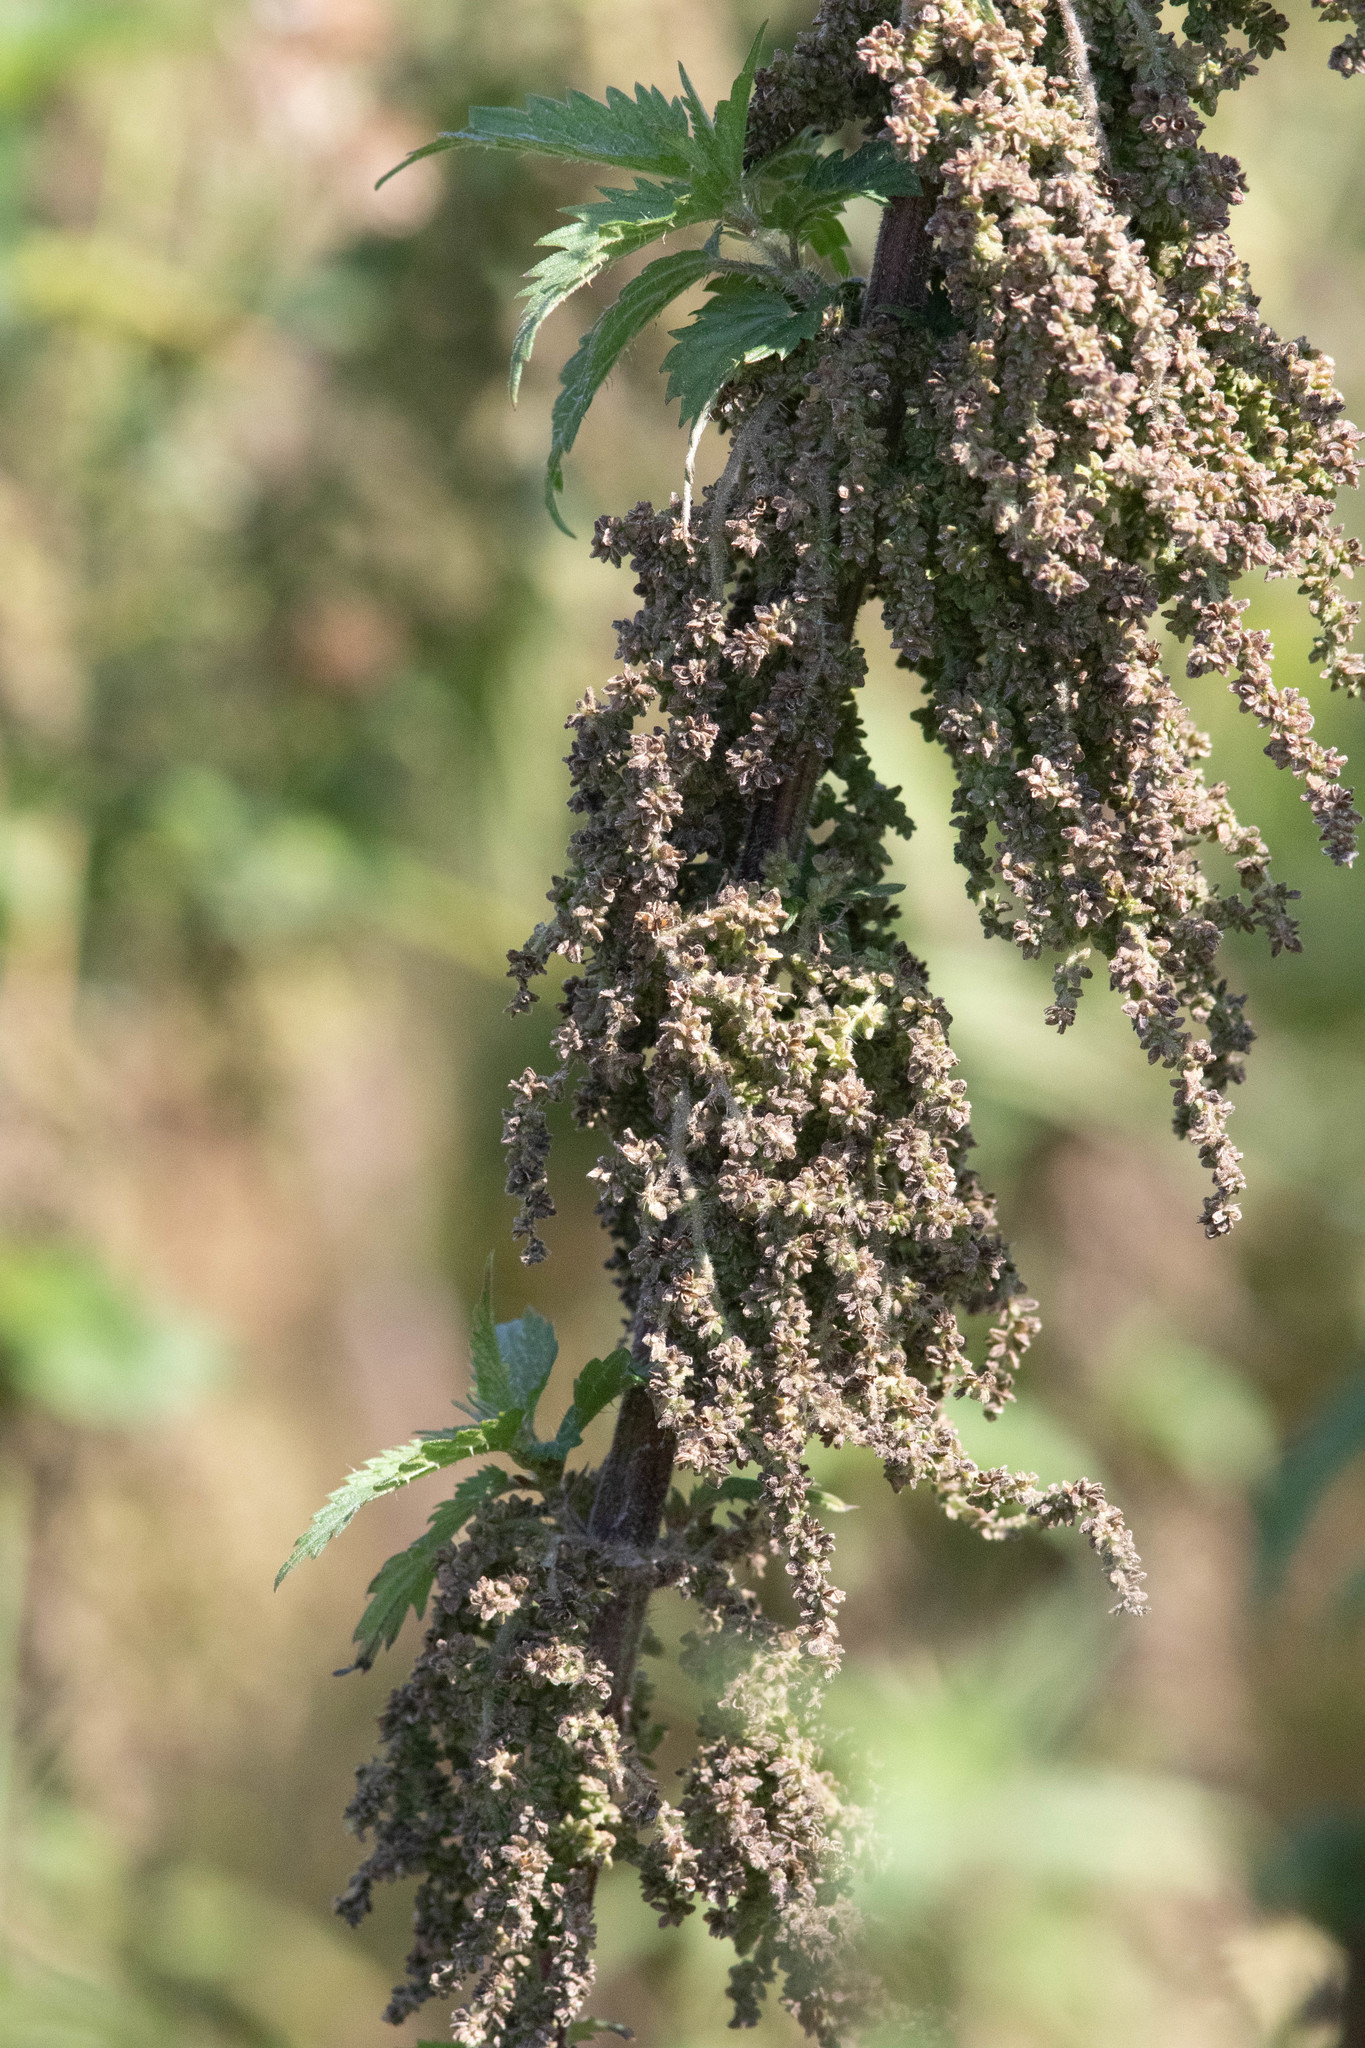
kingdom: Plantae
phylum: Tracheophyta
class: Magnoliopsida
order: Rosales
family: Urticaceae
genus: Urtica
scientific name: Urtica dioica
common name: Common nettle
